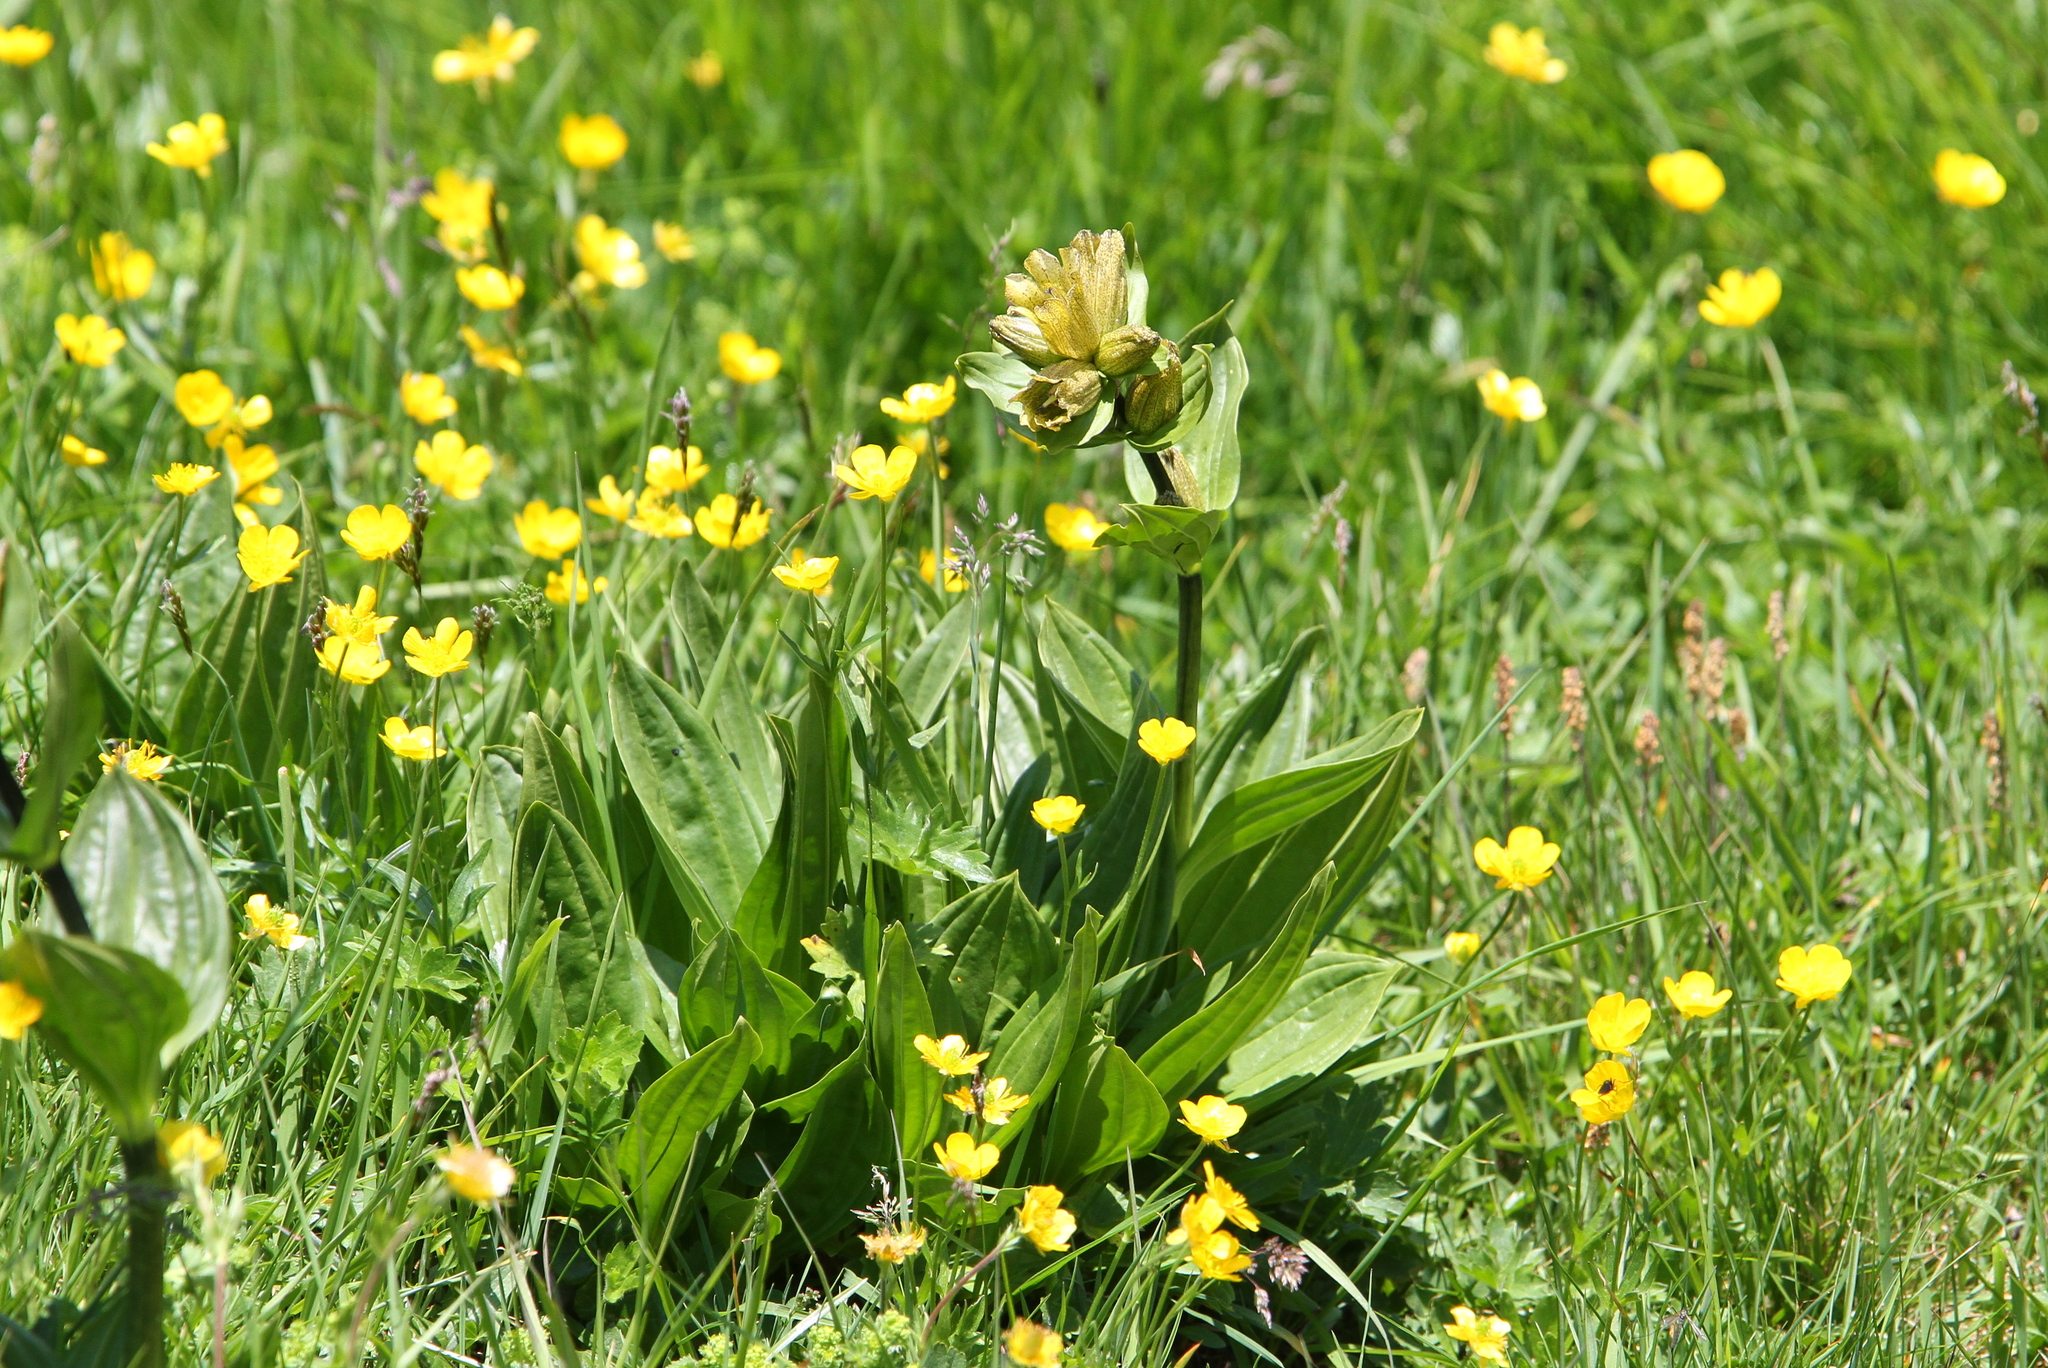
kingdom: Plantae
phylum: Tracheophyta
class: Magnoliopsida
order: Gentianales
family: Gentianaceae
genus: Gentiana
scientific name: Gentiana punctata
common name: Spotted gentian
